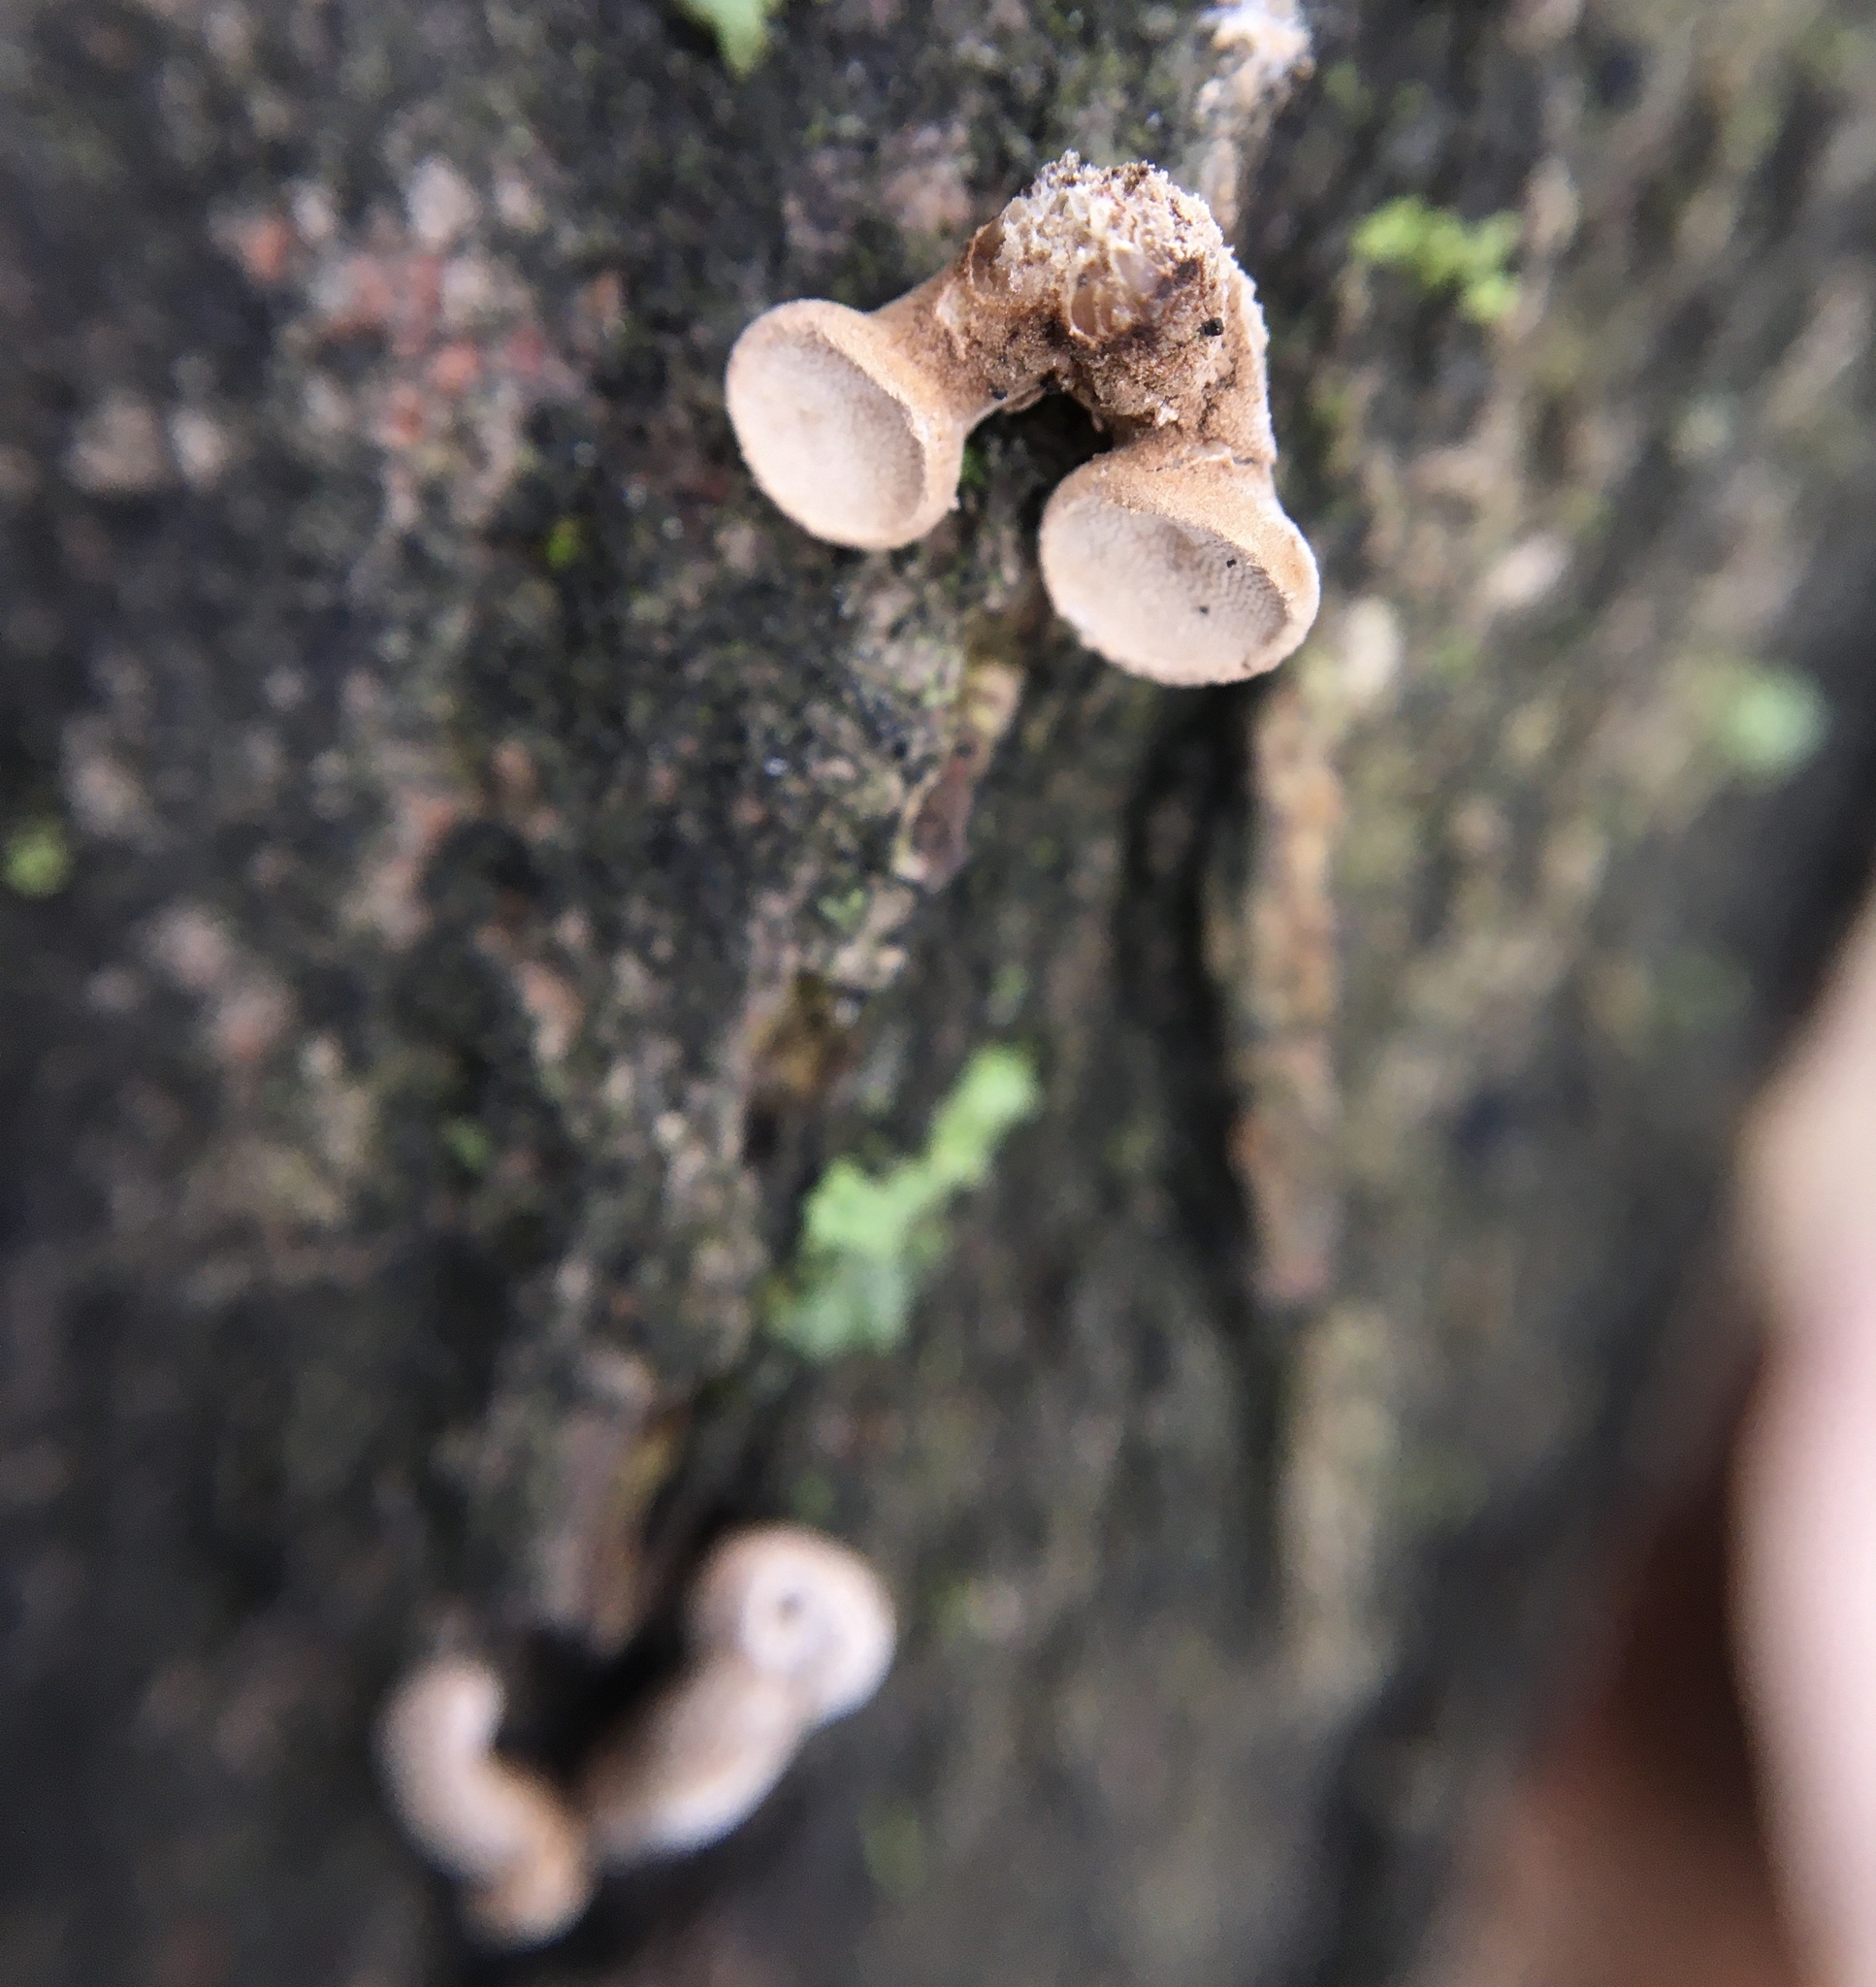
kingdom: Fungi
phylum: Basidiomycota
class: Agaricomycetes
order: Agaricales
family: Schizophyllaceae
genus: Porodisculus
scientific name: Porodisculus pendulus
